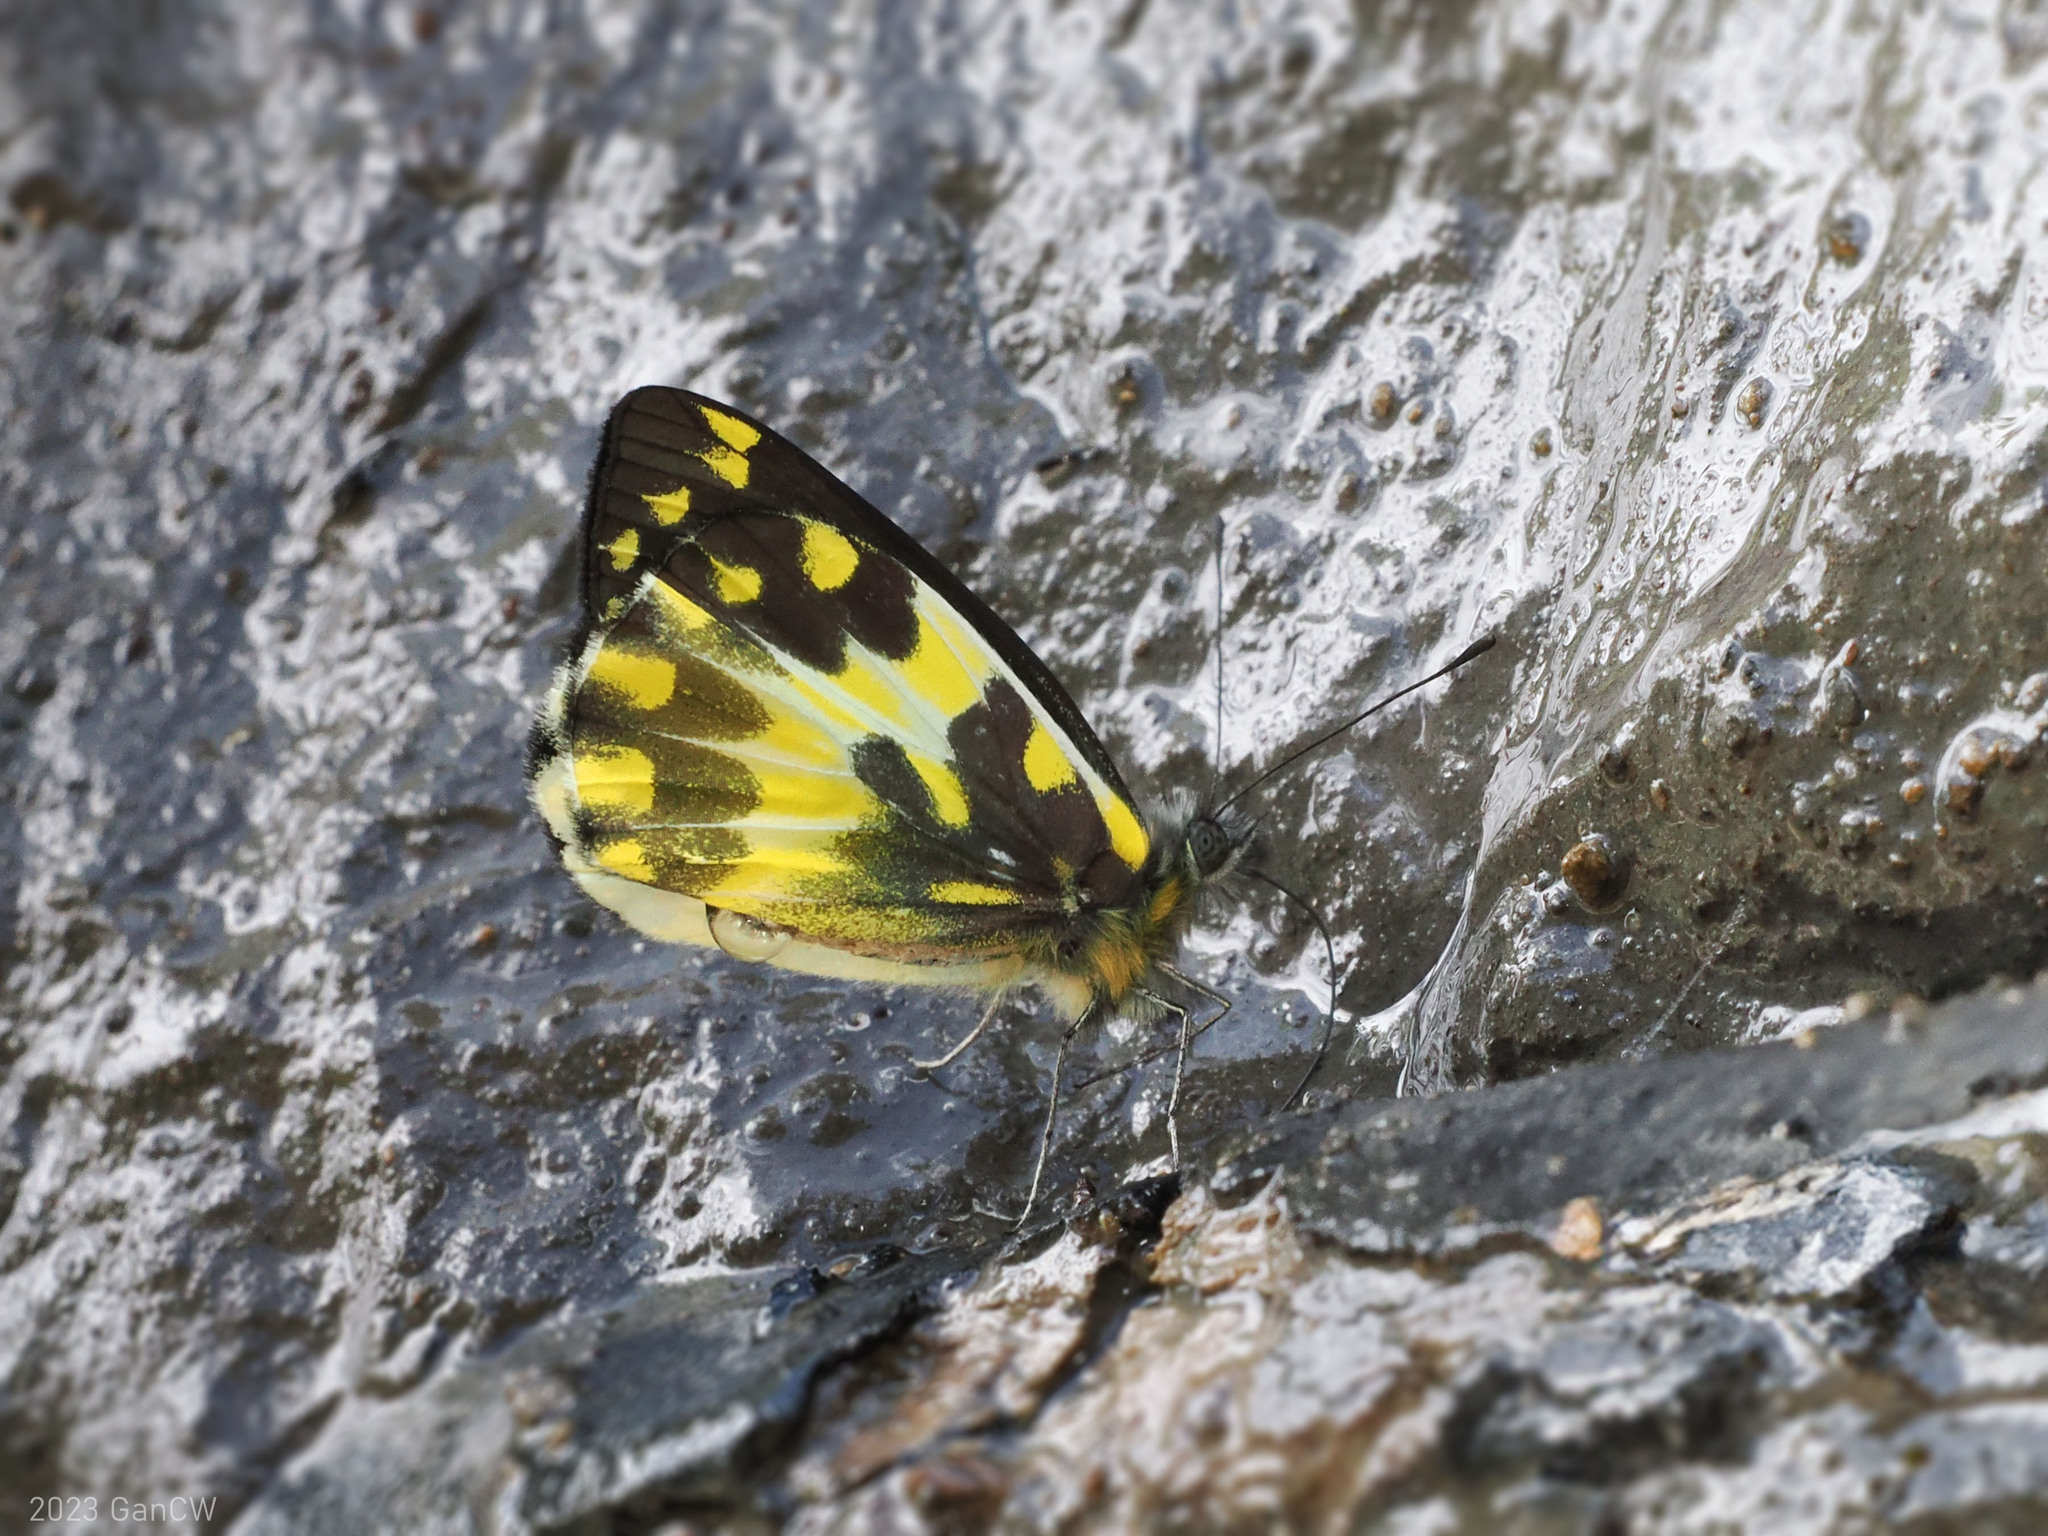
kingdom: Animalia
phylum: Arthropoda
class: Insecta
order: Lepidoptera
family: Pieridae
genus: Delias
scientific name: Delias pheres
